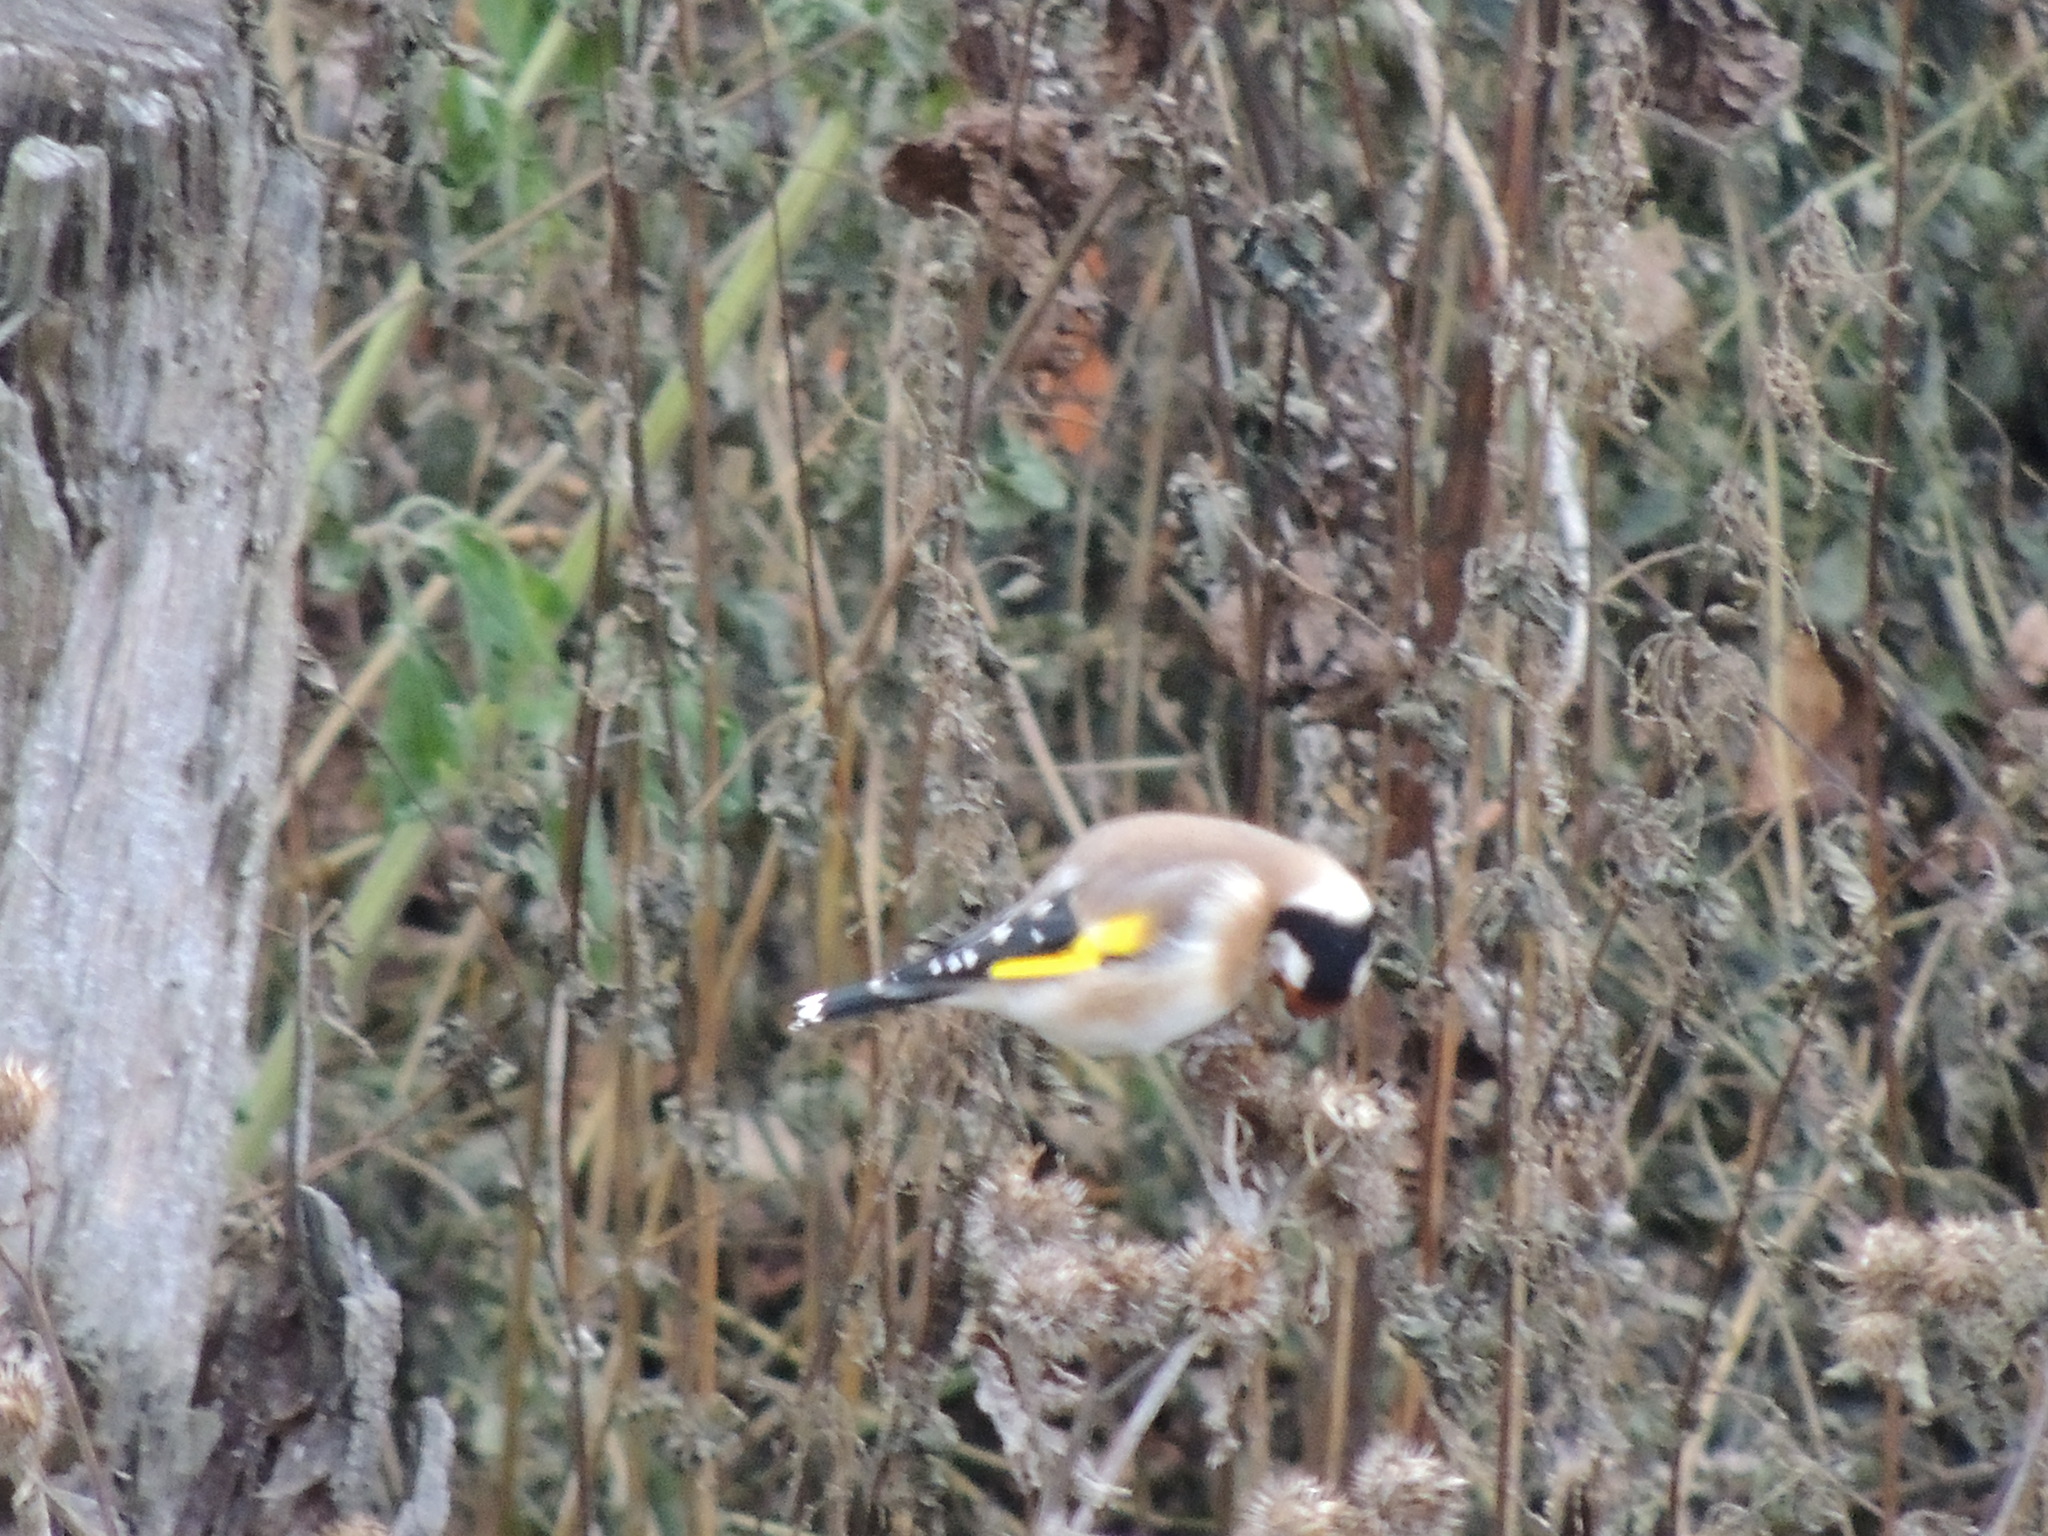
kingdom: Animalia
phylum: Chordata
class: Aves
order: Passeriformes
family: Fringillidae
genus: Carduelis
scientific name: Carduelis carduelis
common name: European goldfinch
